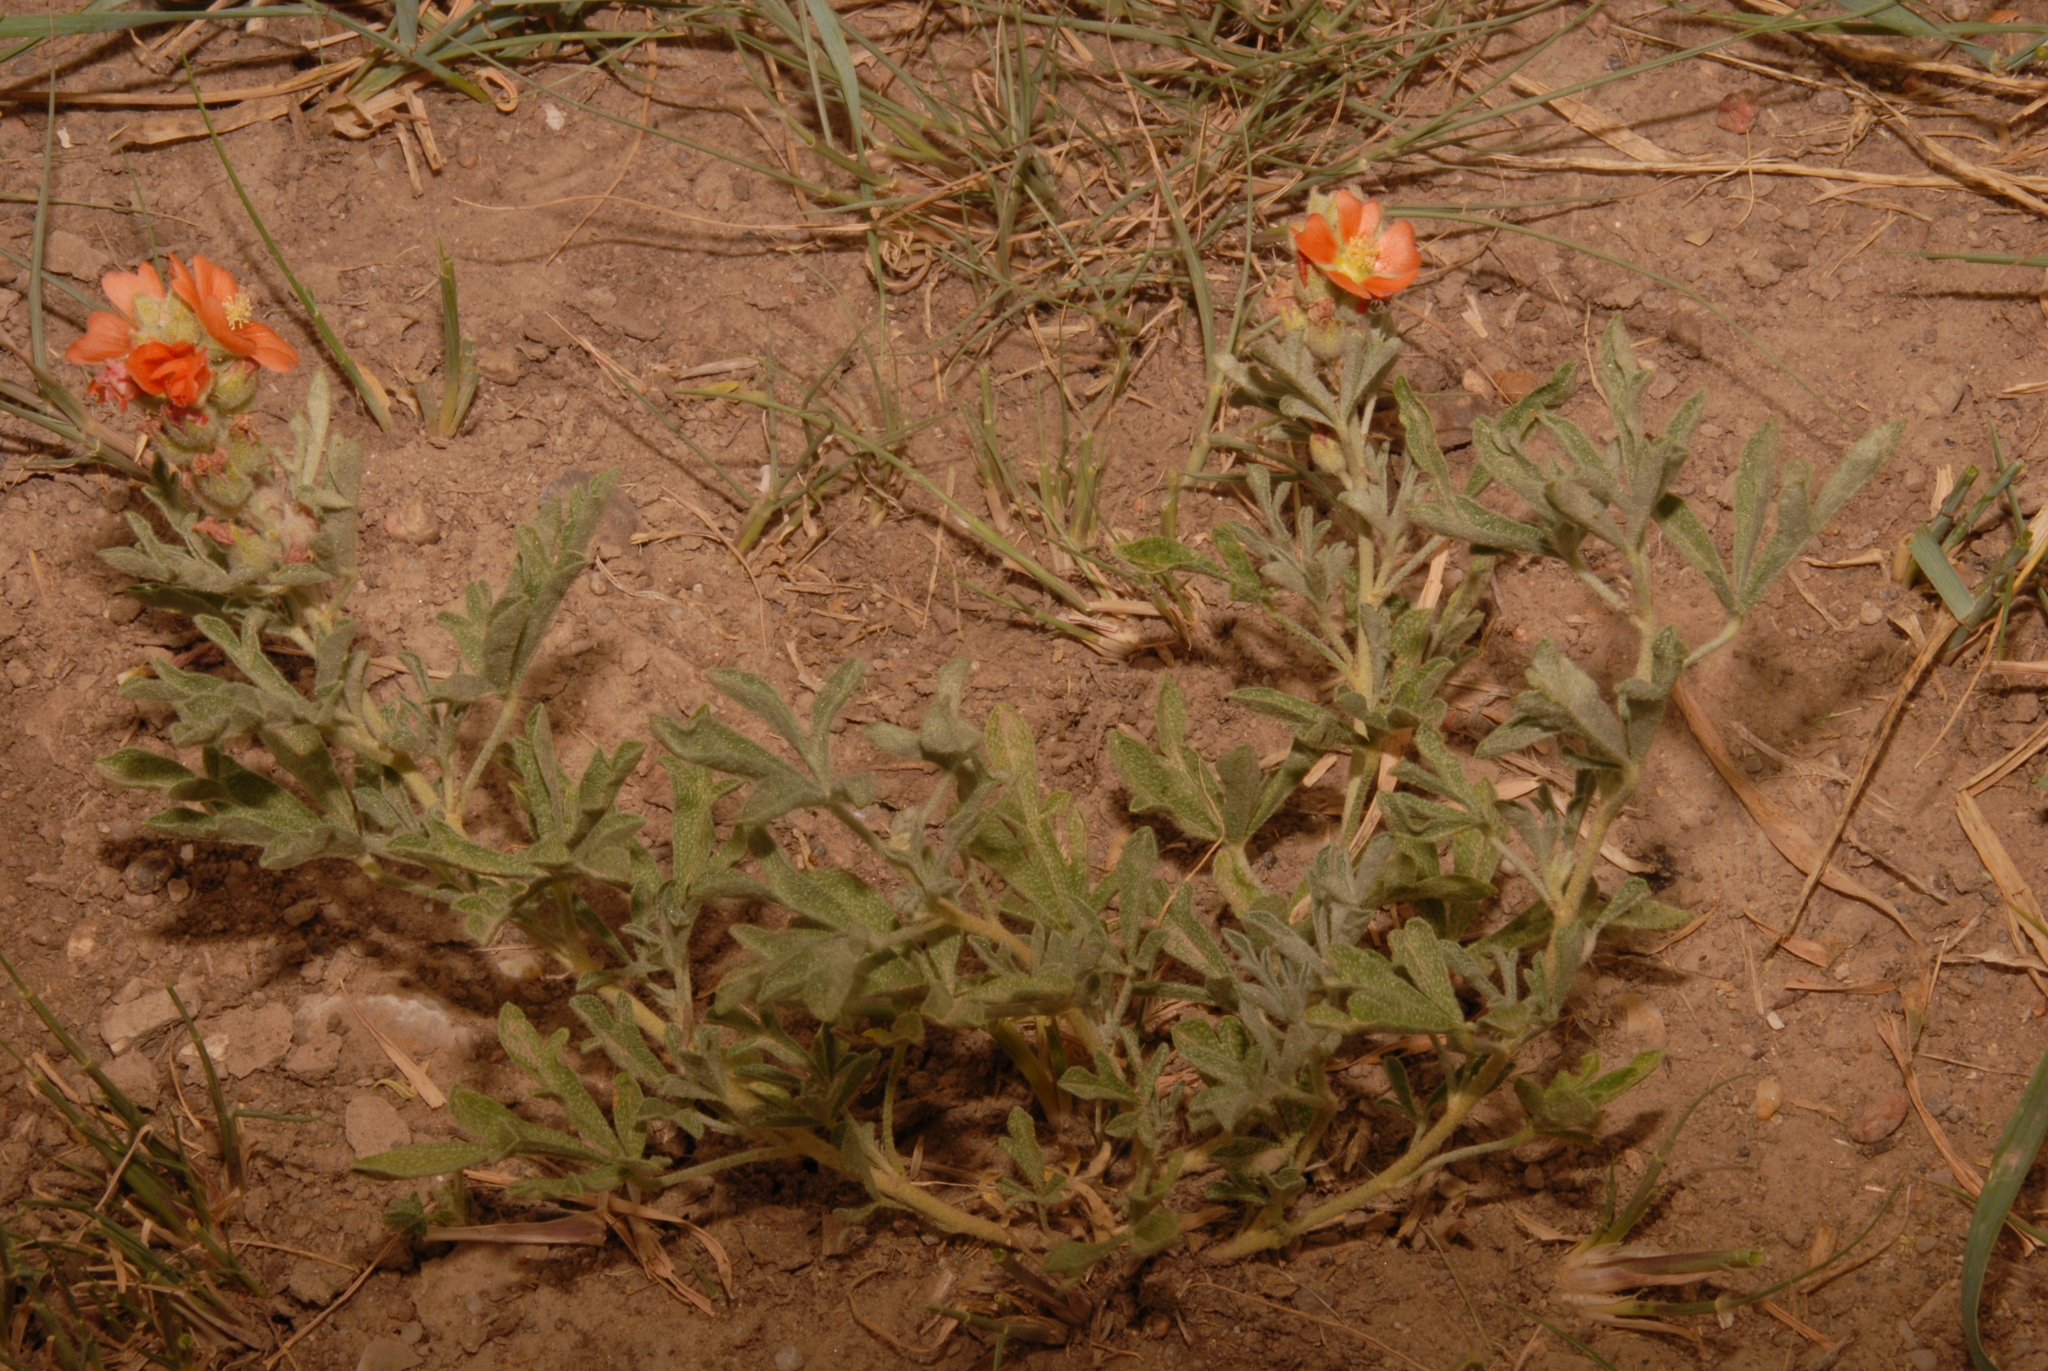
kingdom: Plantae
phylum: Tracheophyta
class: Magnoliopsida
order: Malvales
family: Malvaceae
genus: Sphaeralcea
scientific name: Sphaeralcea coccinea
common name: Moss-rose
